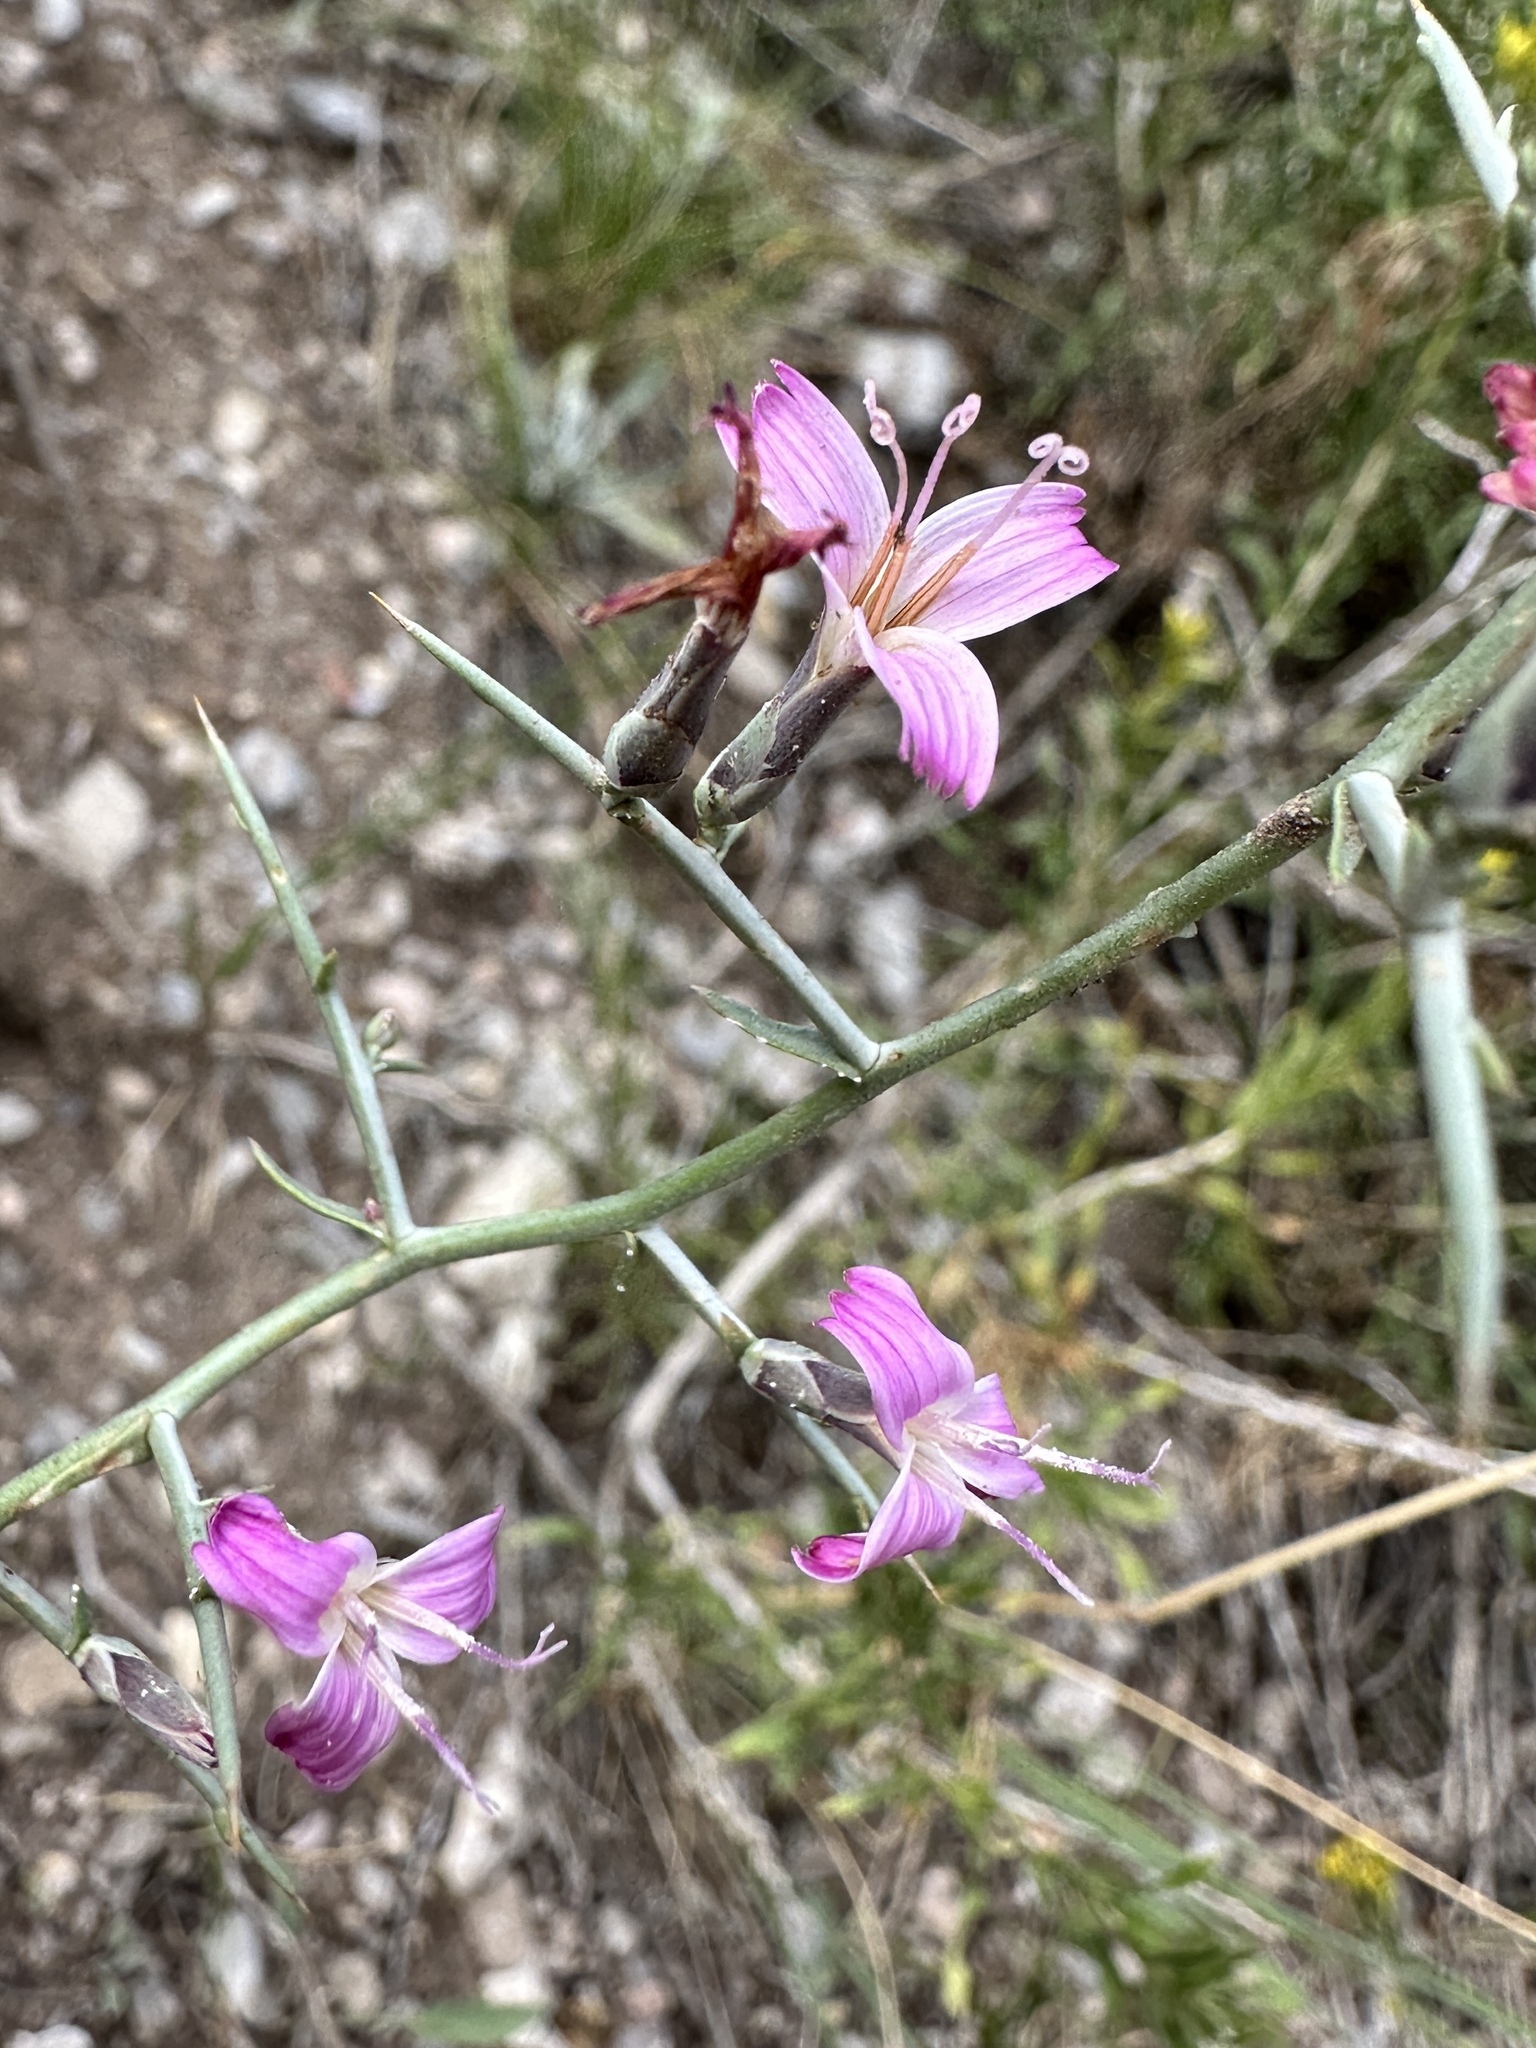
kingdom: Plantae
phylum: Tracheophyta
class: Magnoliopsida
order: Asterales
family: Asteraceae
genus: Pleiacanthus
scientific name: Pleiacanthus spinosus
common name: Thorny skeleton-weed
